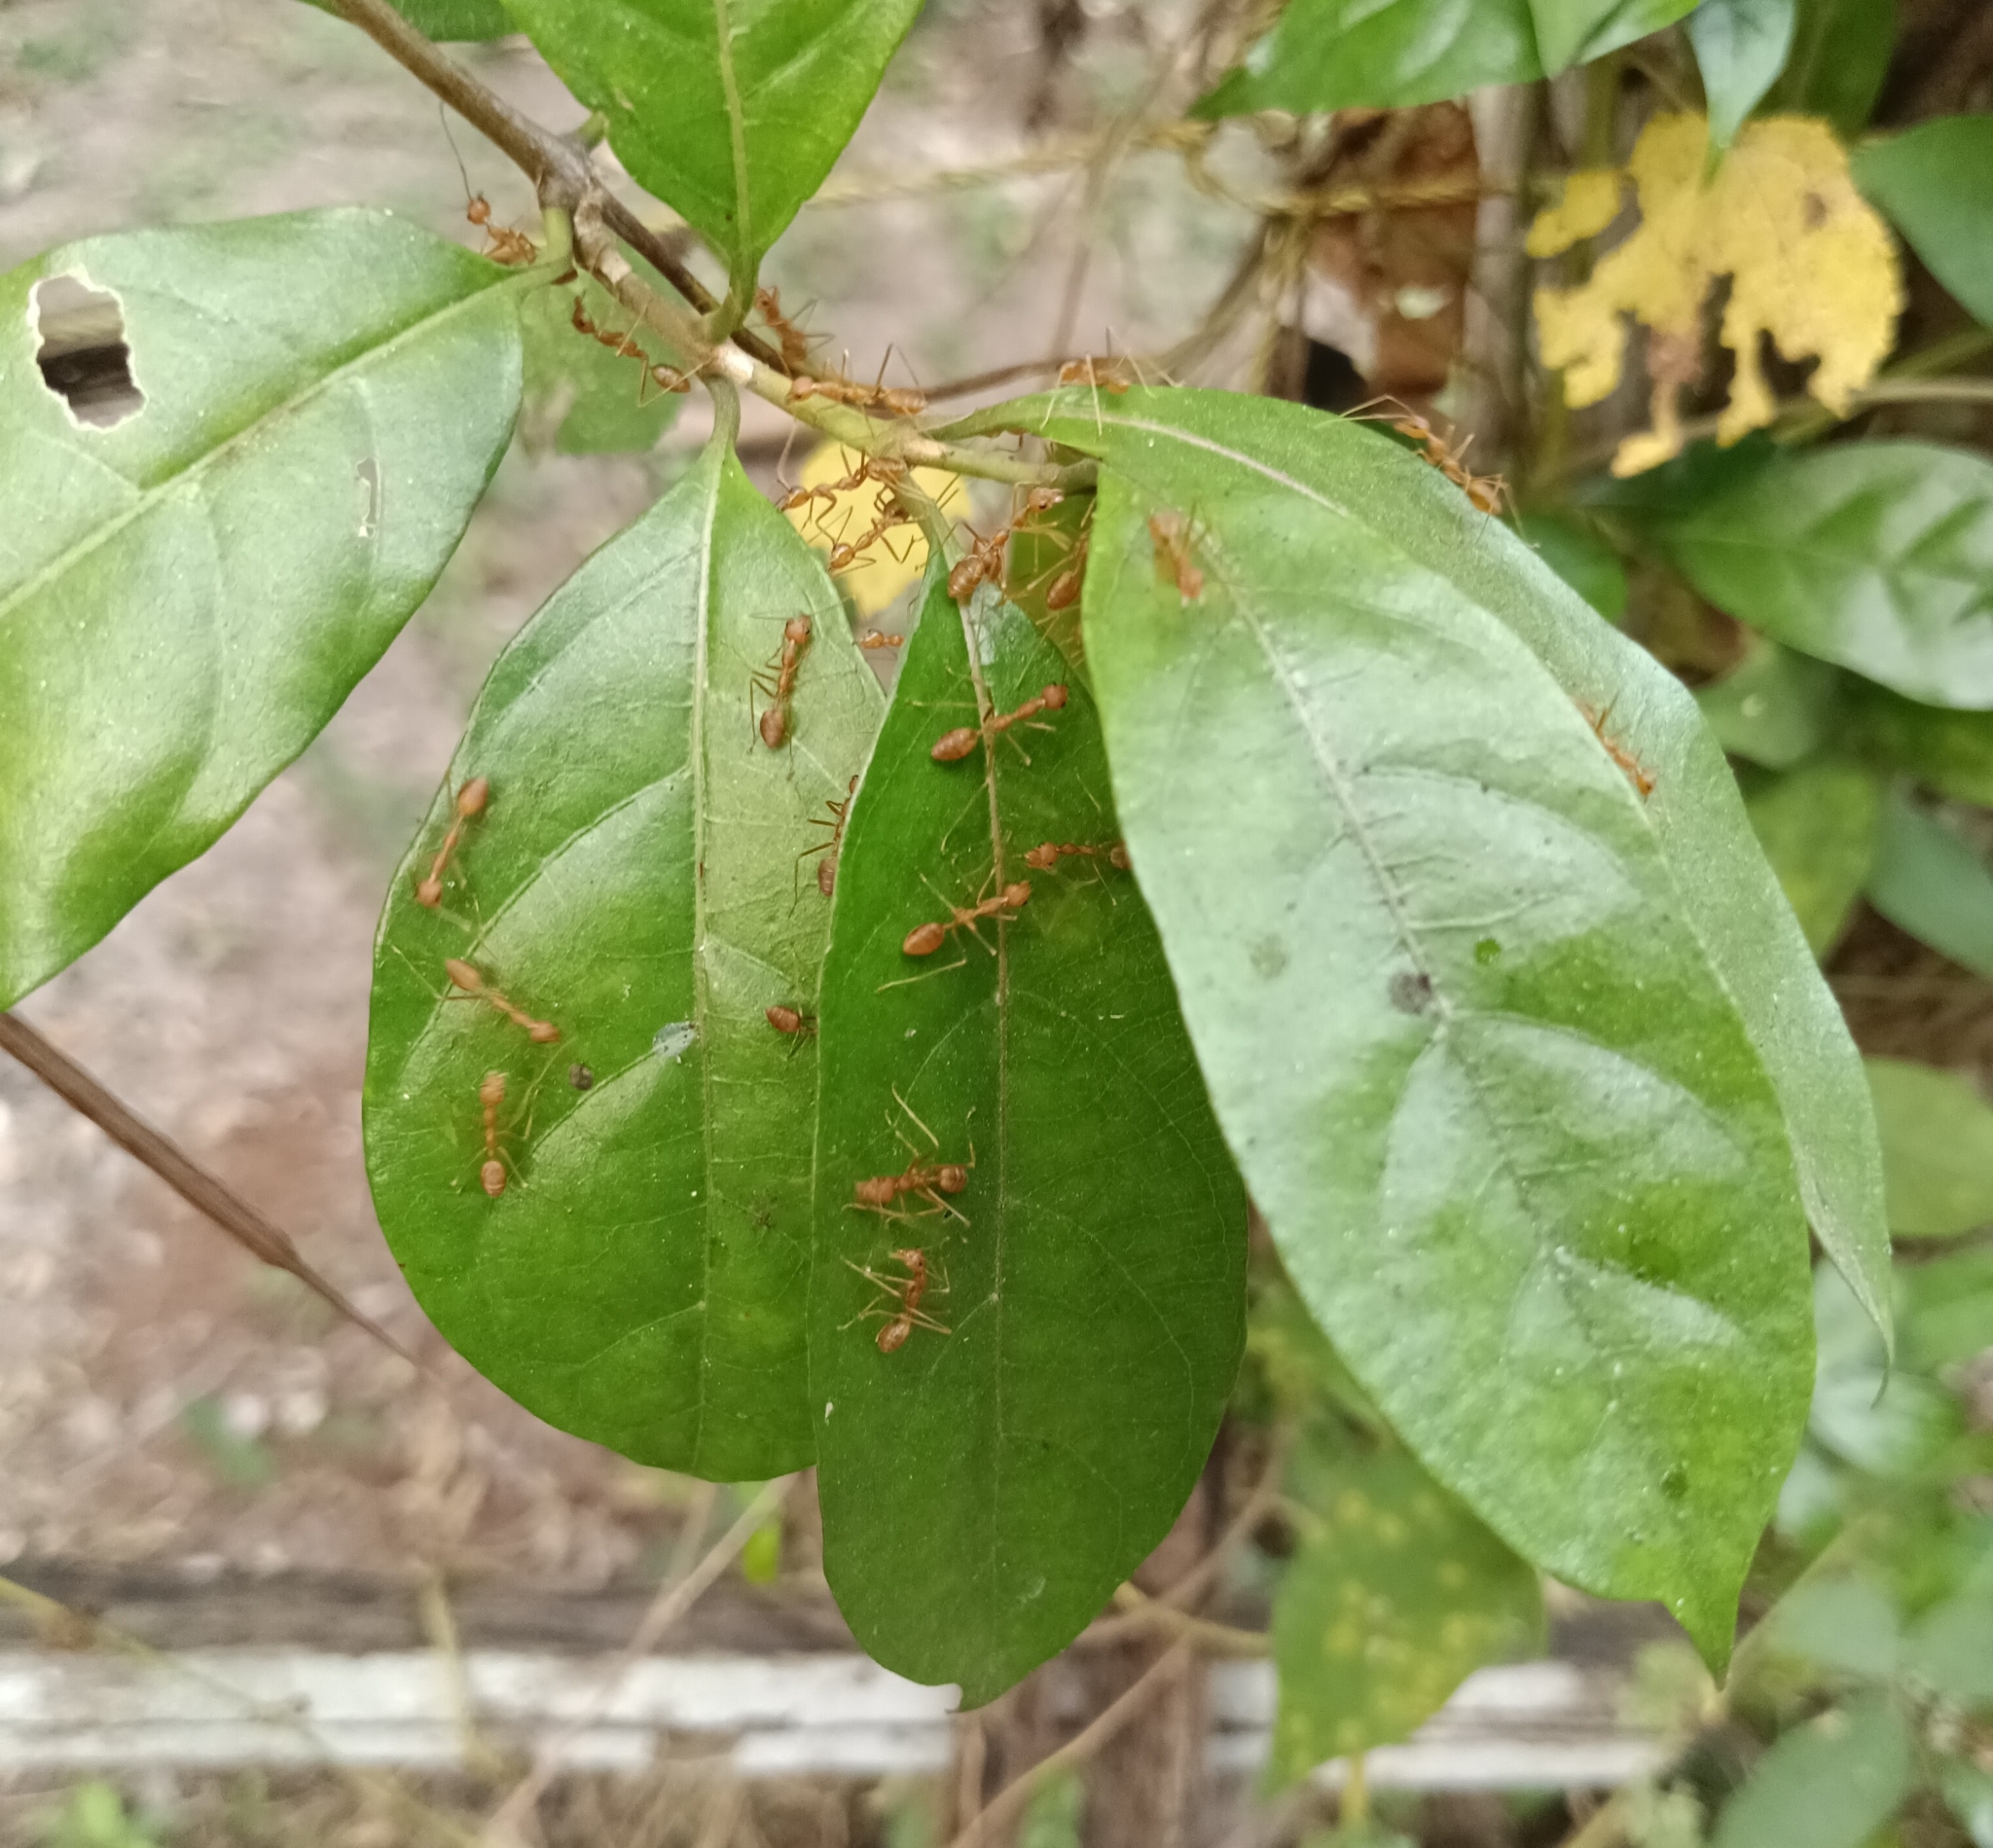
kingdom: Animalia
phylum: Arthropoda
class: Insecta
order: Hymenoptera
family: Formicidae
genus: Oecophylla
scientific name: Oecophylla smaragdina
